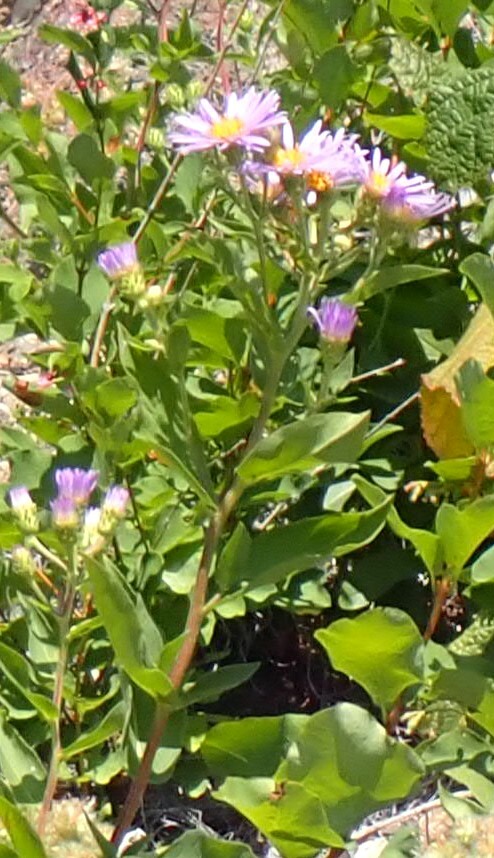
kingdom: Plantae
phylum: Tracheophyta
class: Magnoliopsida
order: Asterales
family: Asteraceae
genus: Eurybia
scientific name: Eurybia conspicua
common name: Showy aster
